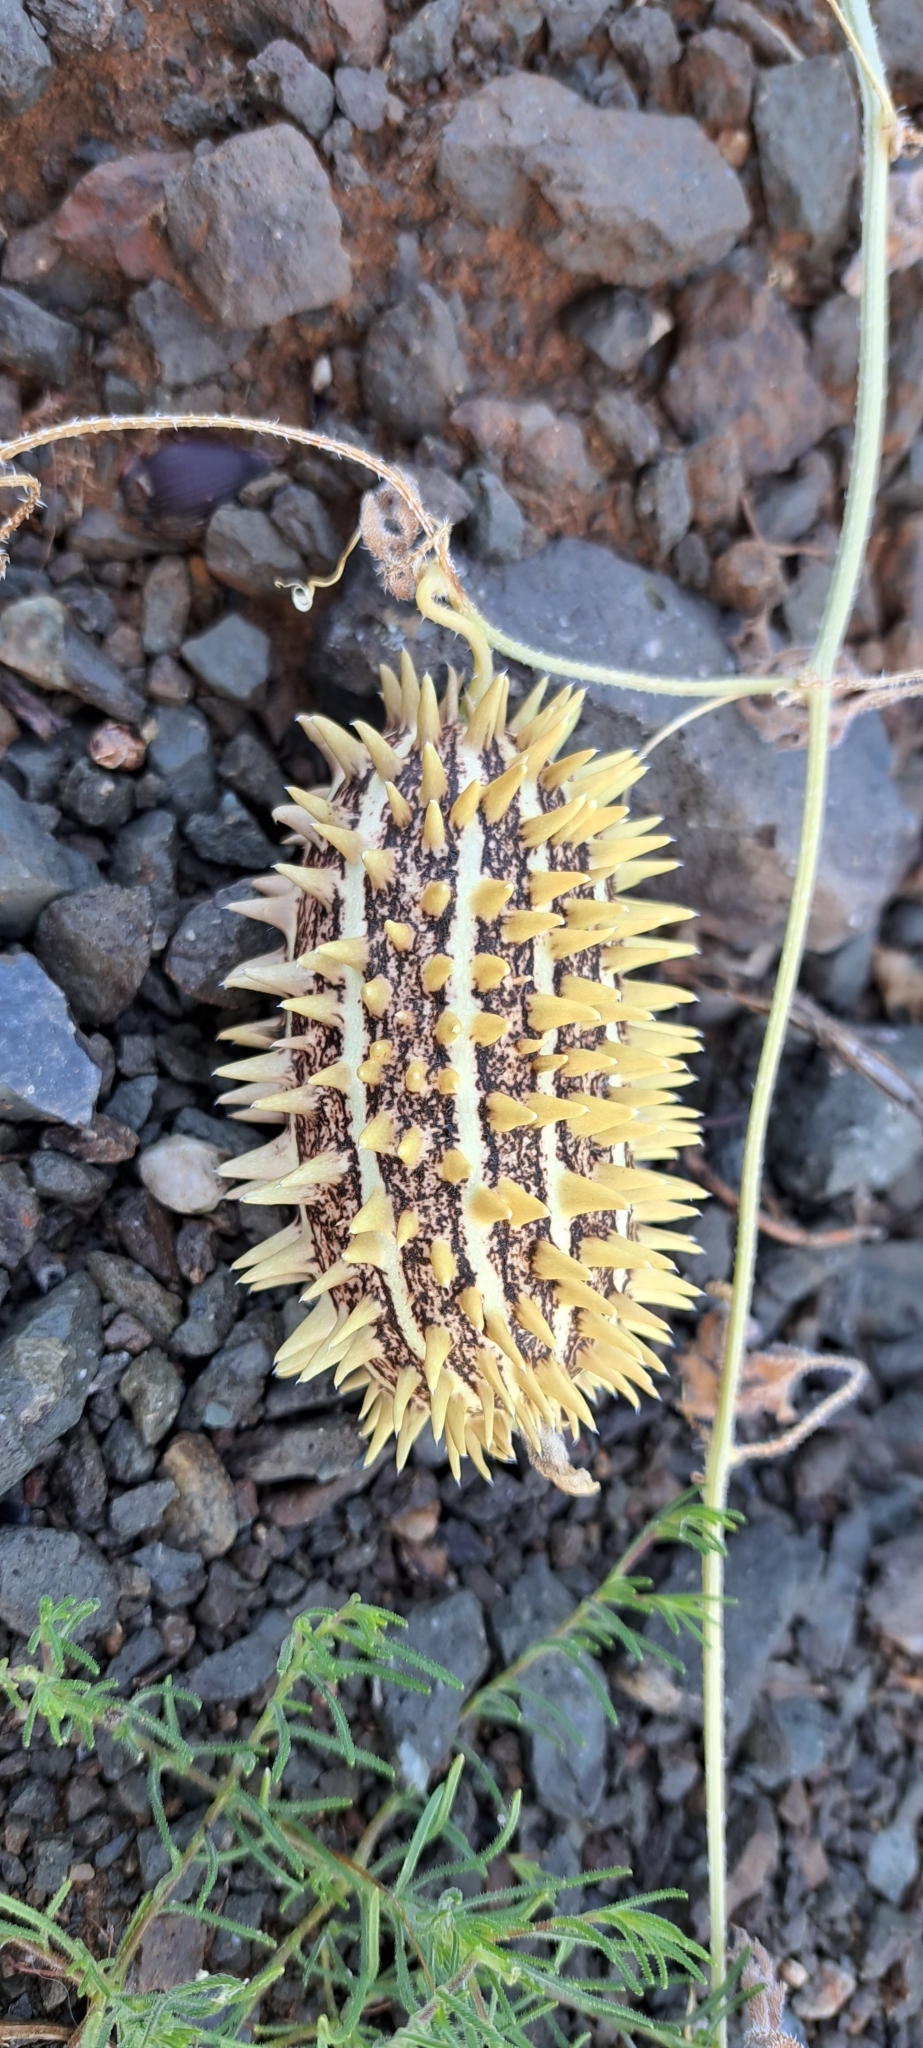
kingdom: Plantae
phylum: Tracheophyta
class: Magnoliopsida
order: Cucurbitales
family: Cucurbitaceae
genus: Cucumis
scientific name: Cucumis africanus
